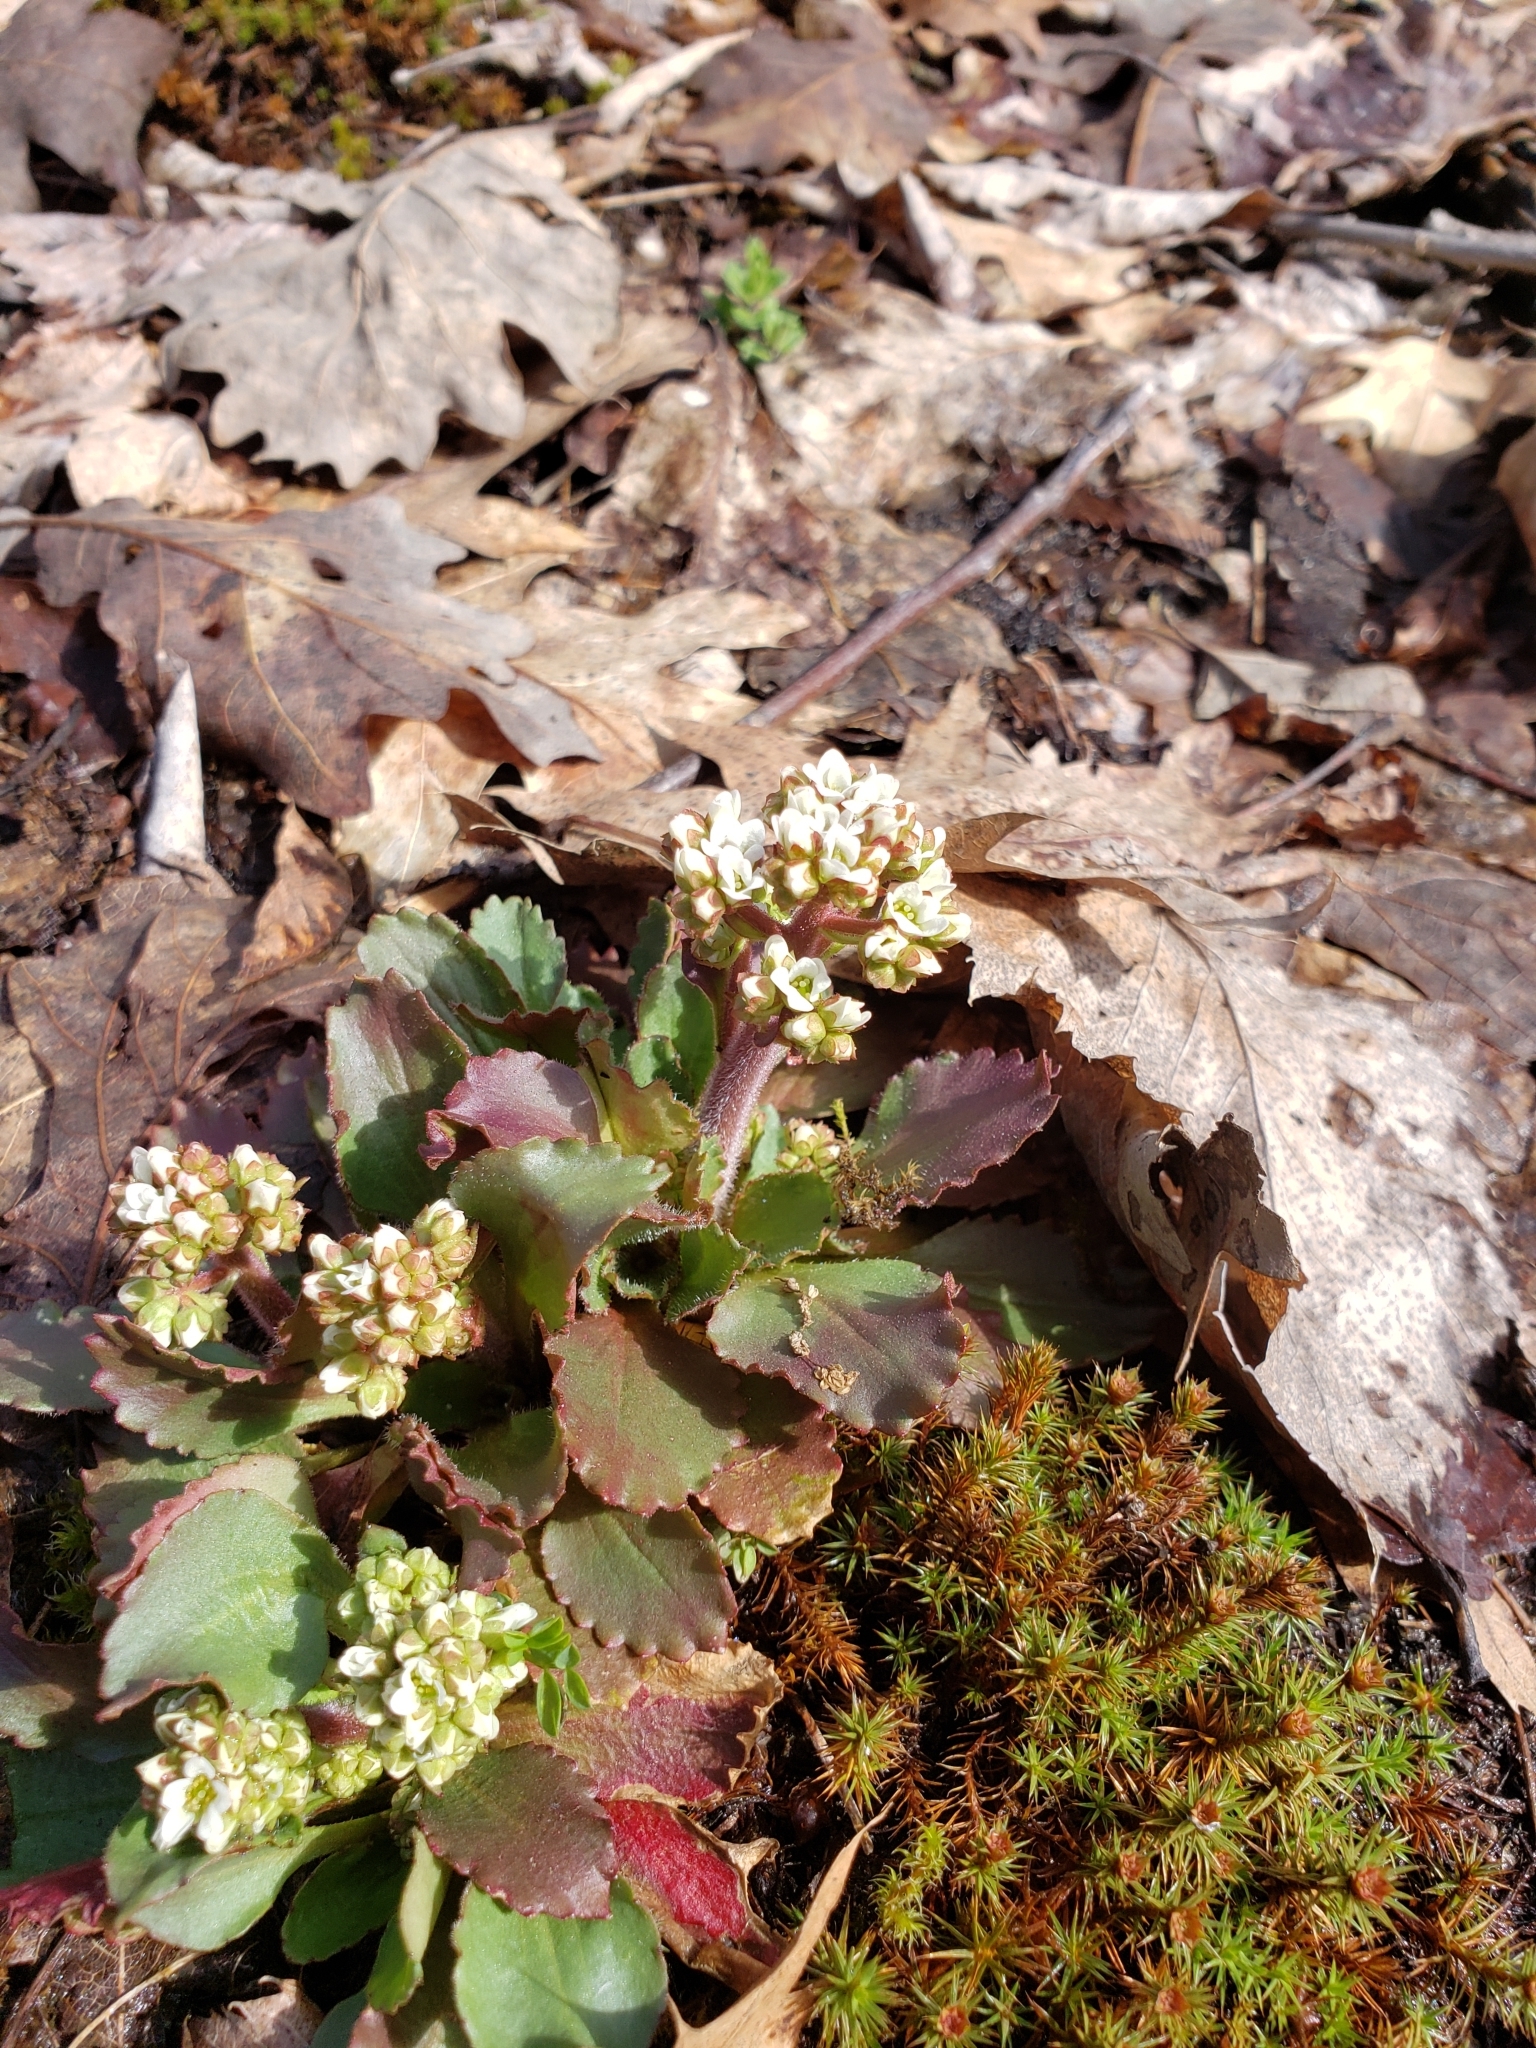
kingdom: Plantae
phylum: Tracheophyta
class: Magnoliopsida
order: Saxifragales
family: Saxifragaceae
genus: Micranthes
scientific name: Micranthes virginiensis
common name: Early saxifrage
